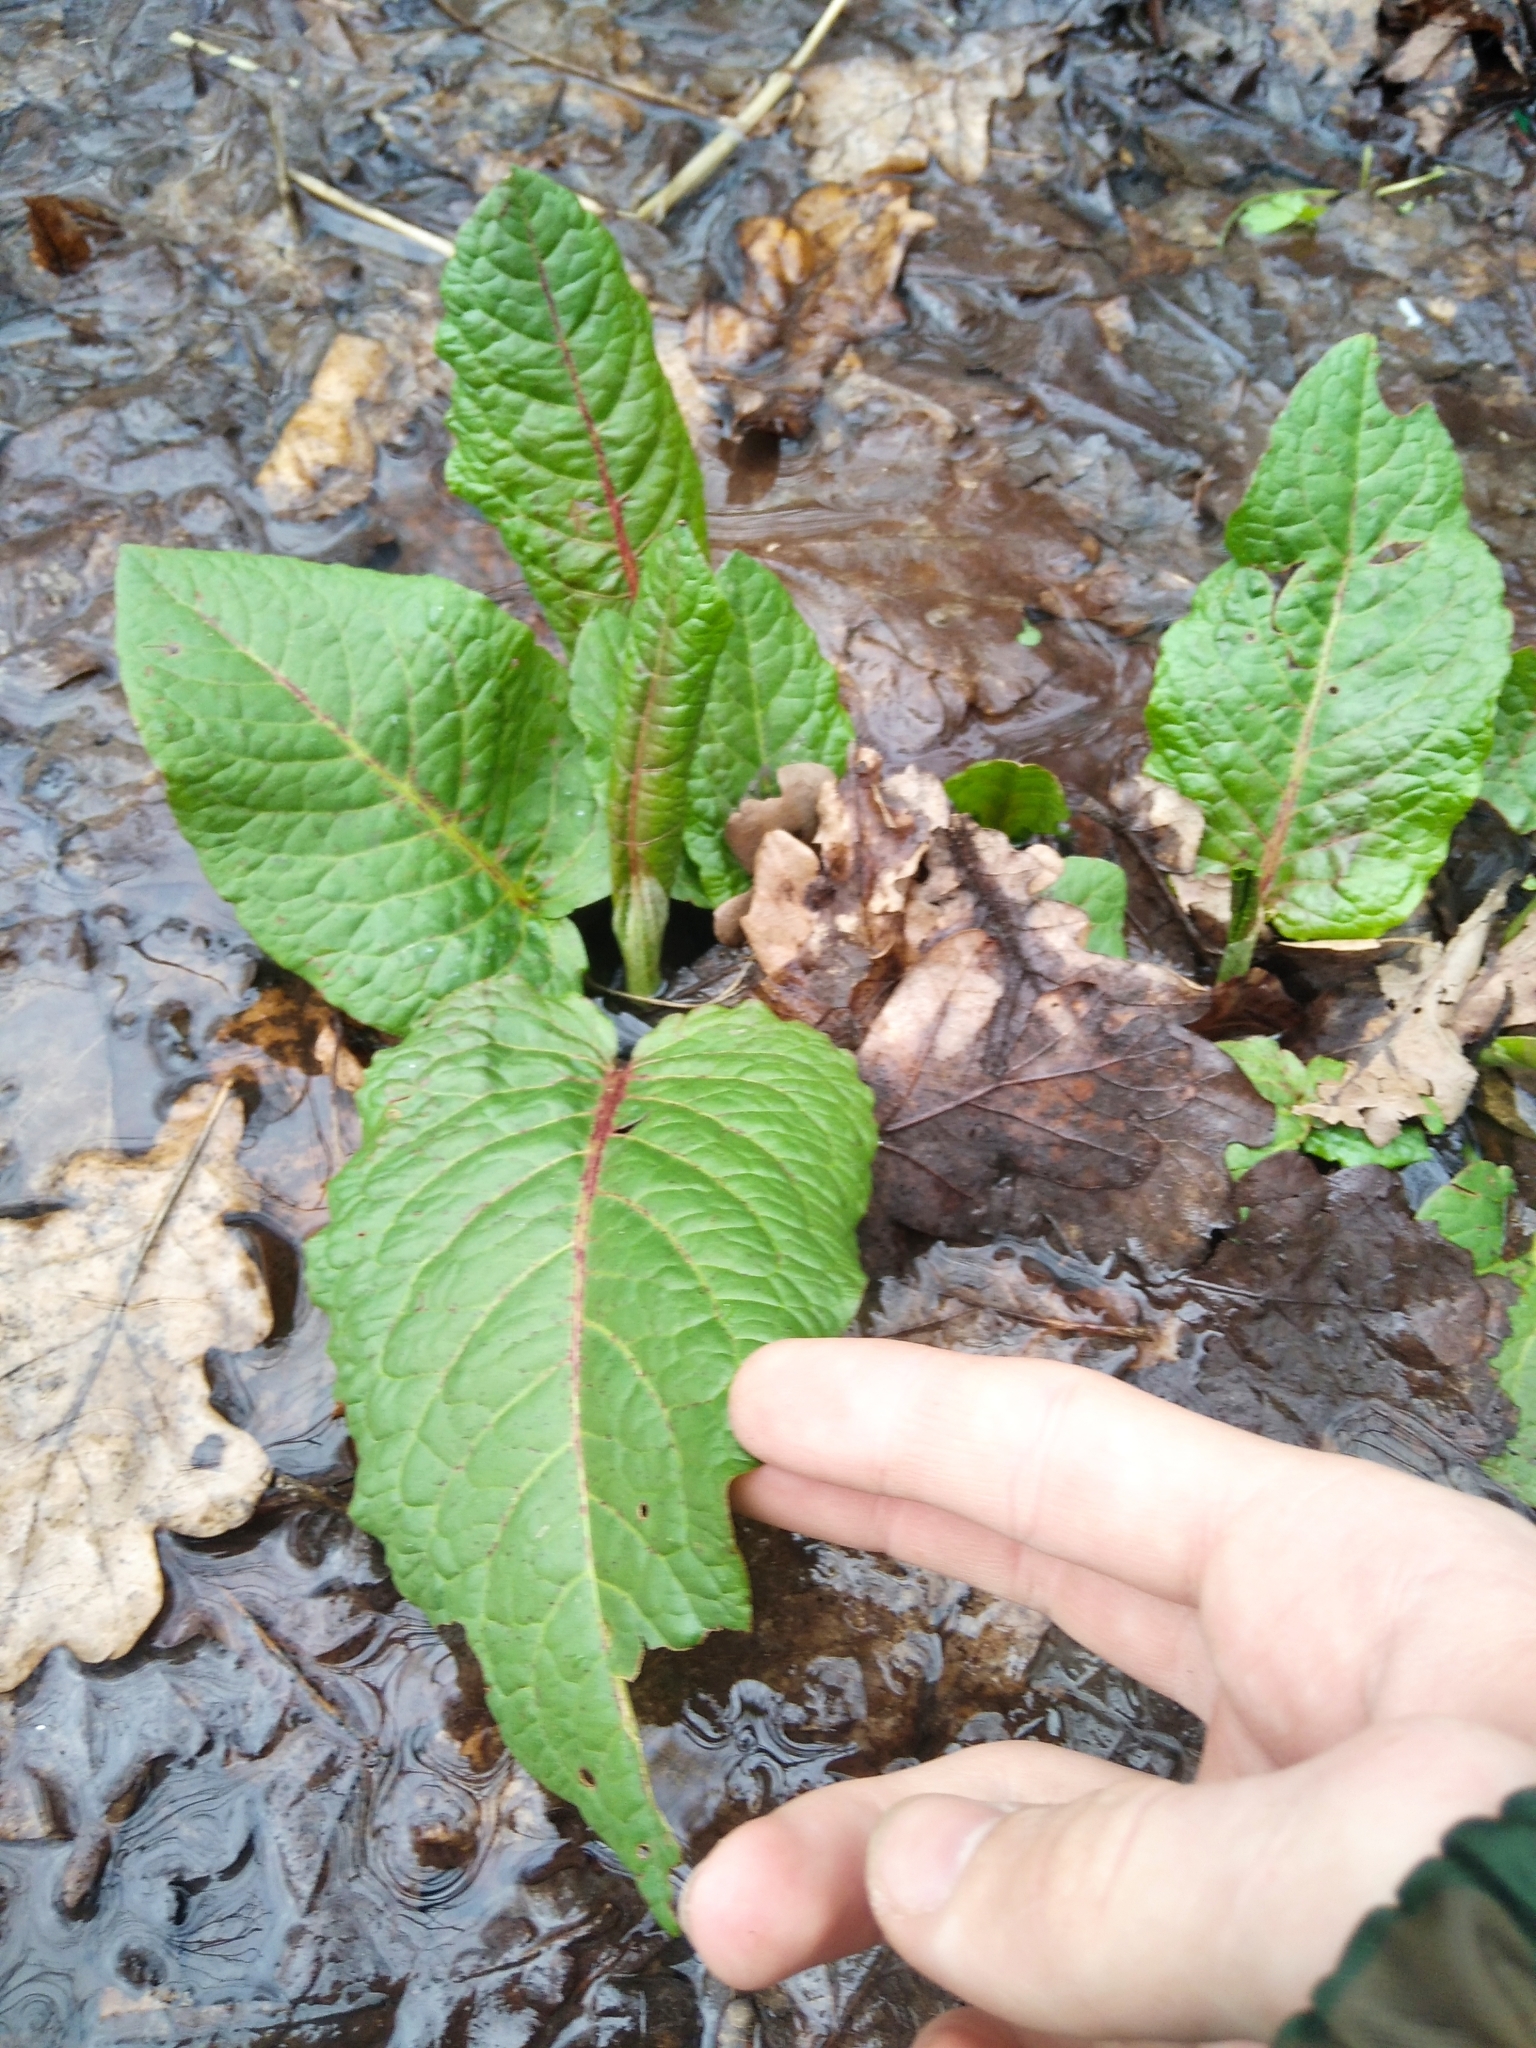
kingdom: Plantae
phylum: Tracheophyta
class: Magnoliopsida
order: Caryophyllales
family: Polygonaceae
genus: Rumex
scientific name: Rumex obtusifolius
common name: Bitter dock
